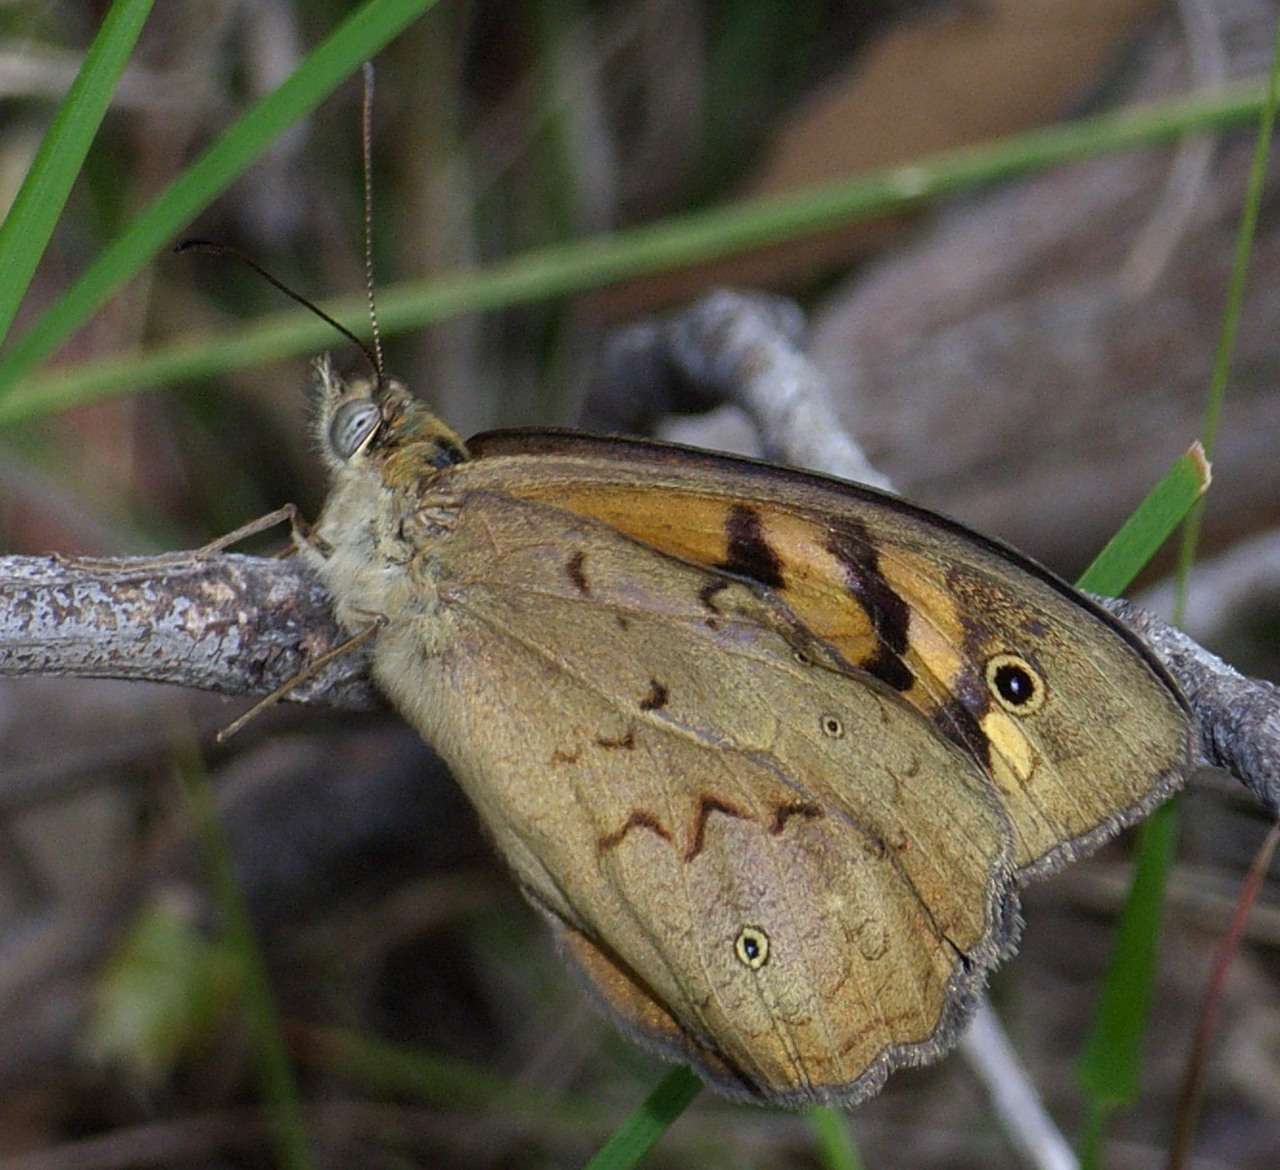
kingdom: Animalia
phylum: Arthropoda
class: Insecta
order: Lepidoptera
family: Nymphalidae
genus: Heteronympha
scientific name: Heteronympha merope
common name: Common brown
